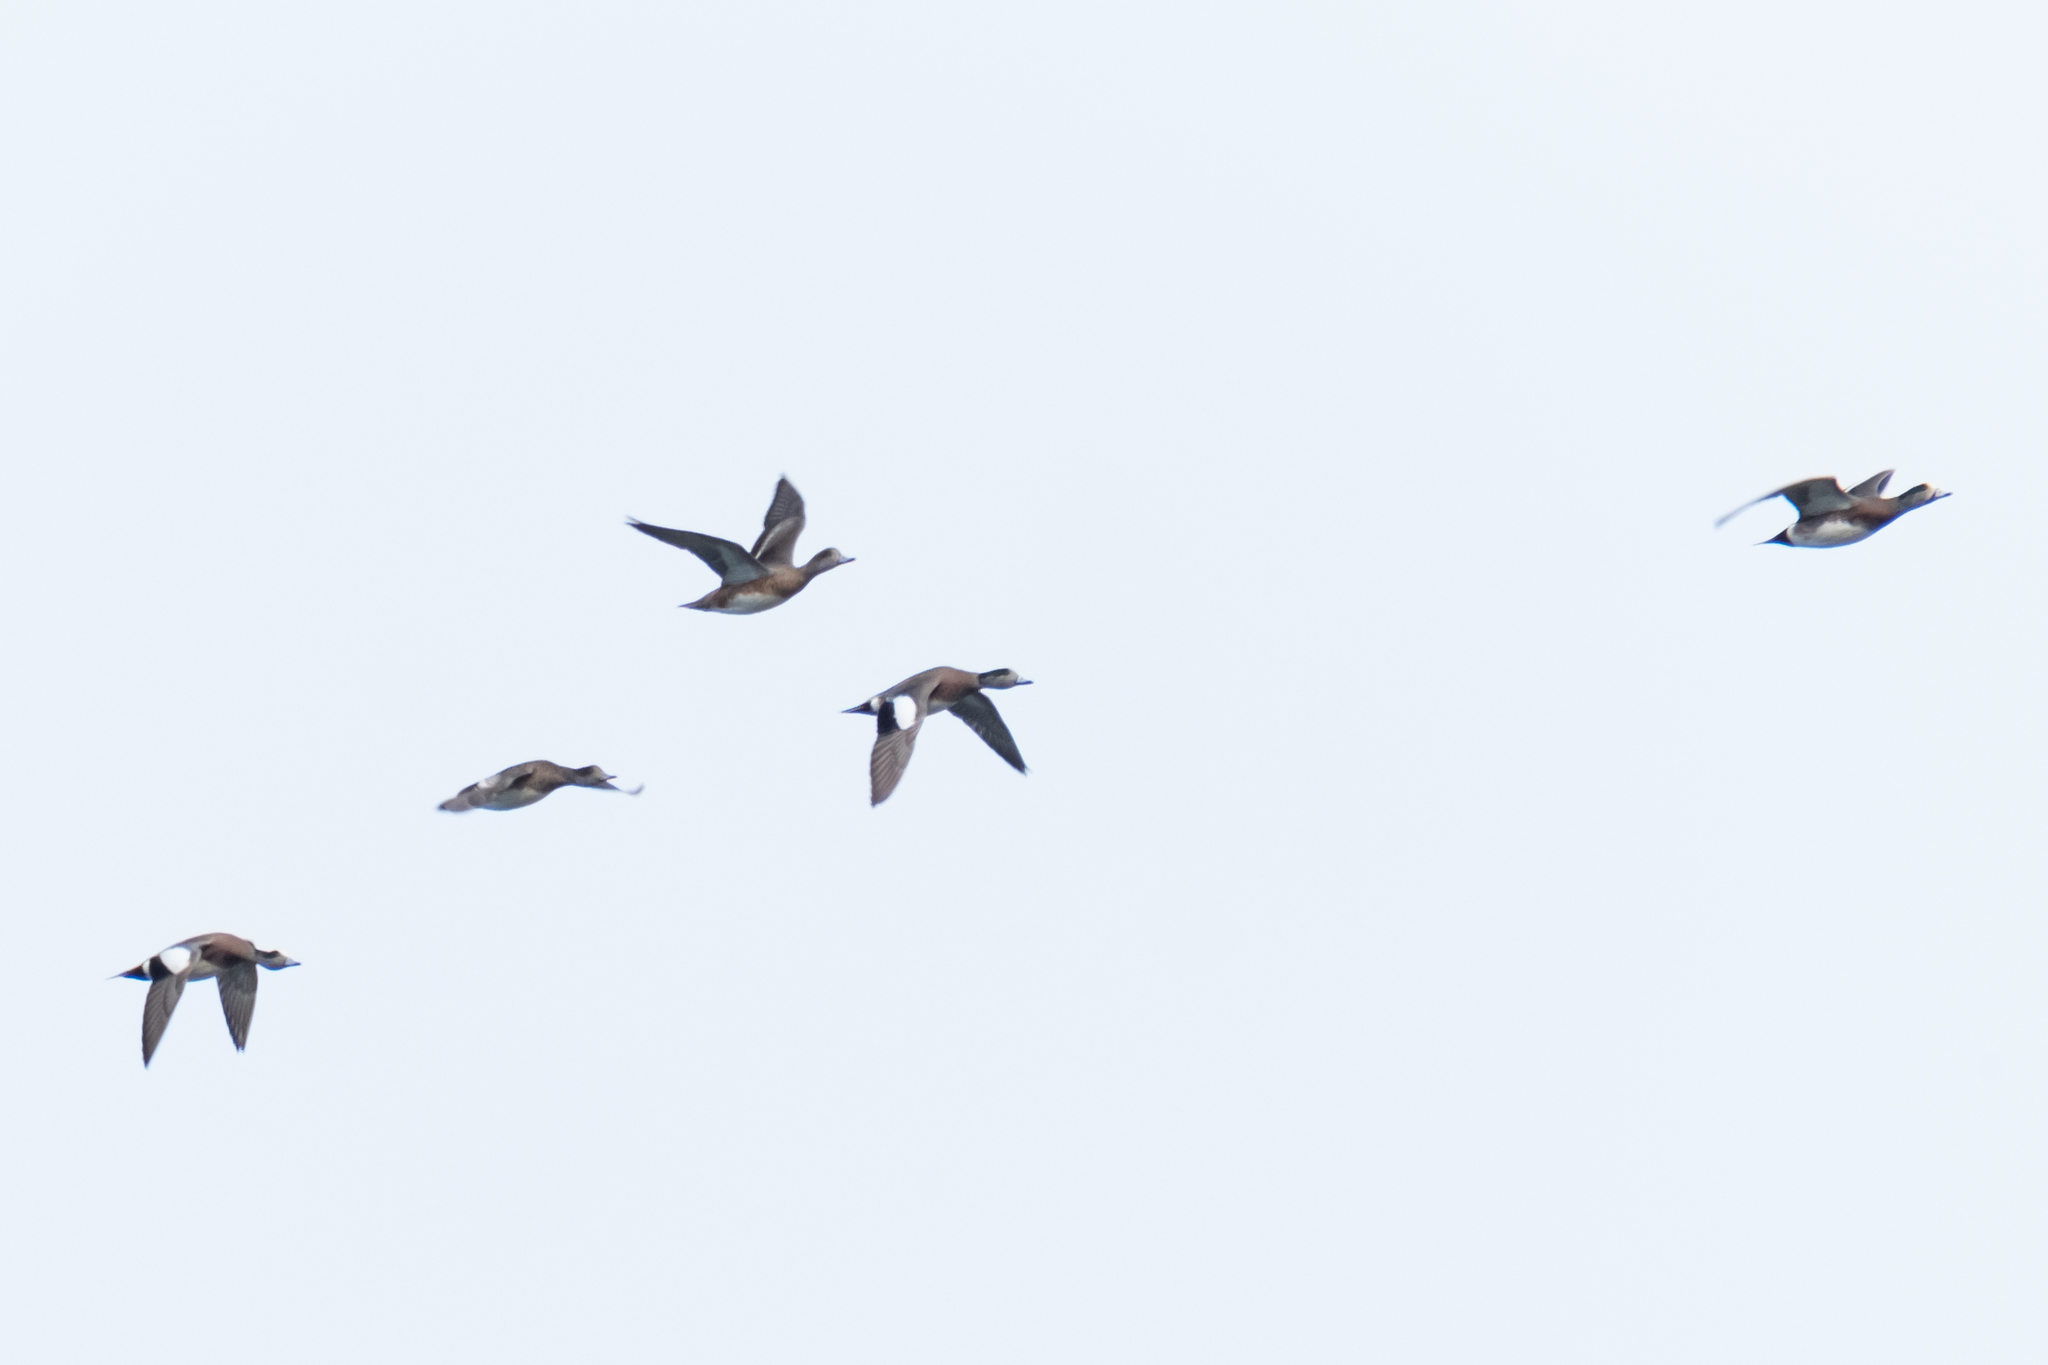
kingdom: Animalia
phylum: Chordata
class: Aves
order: Anseriformes
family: Anatidae
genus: Mareca
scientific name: Mareca americana
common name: American wigeon
